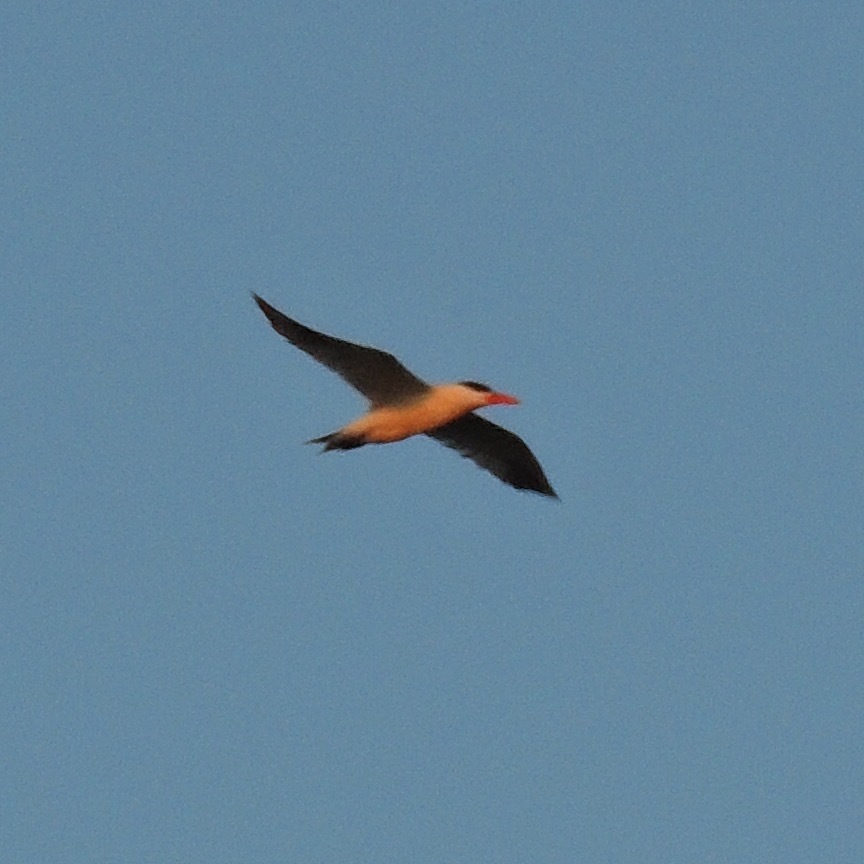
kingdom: Animalia
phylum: Chordata
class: Aves
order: Charadriiformes
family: Laridae
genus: Hydroprogne
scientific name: Hydroprogne caspia
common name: Caspian tern
